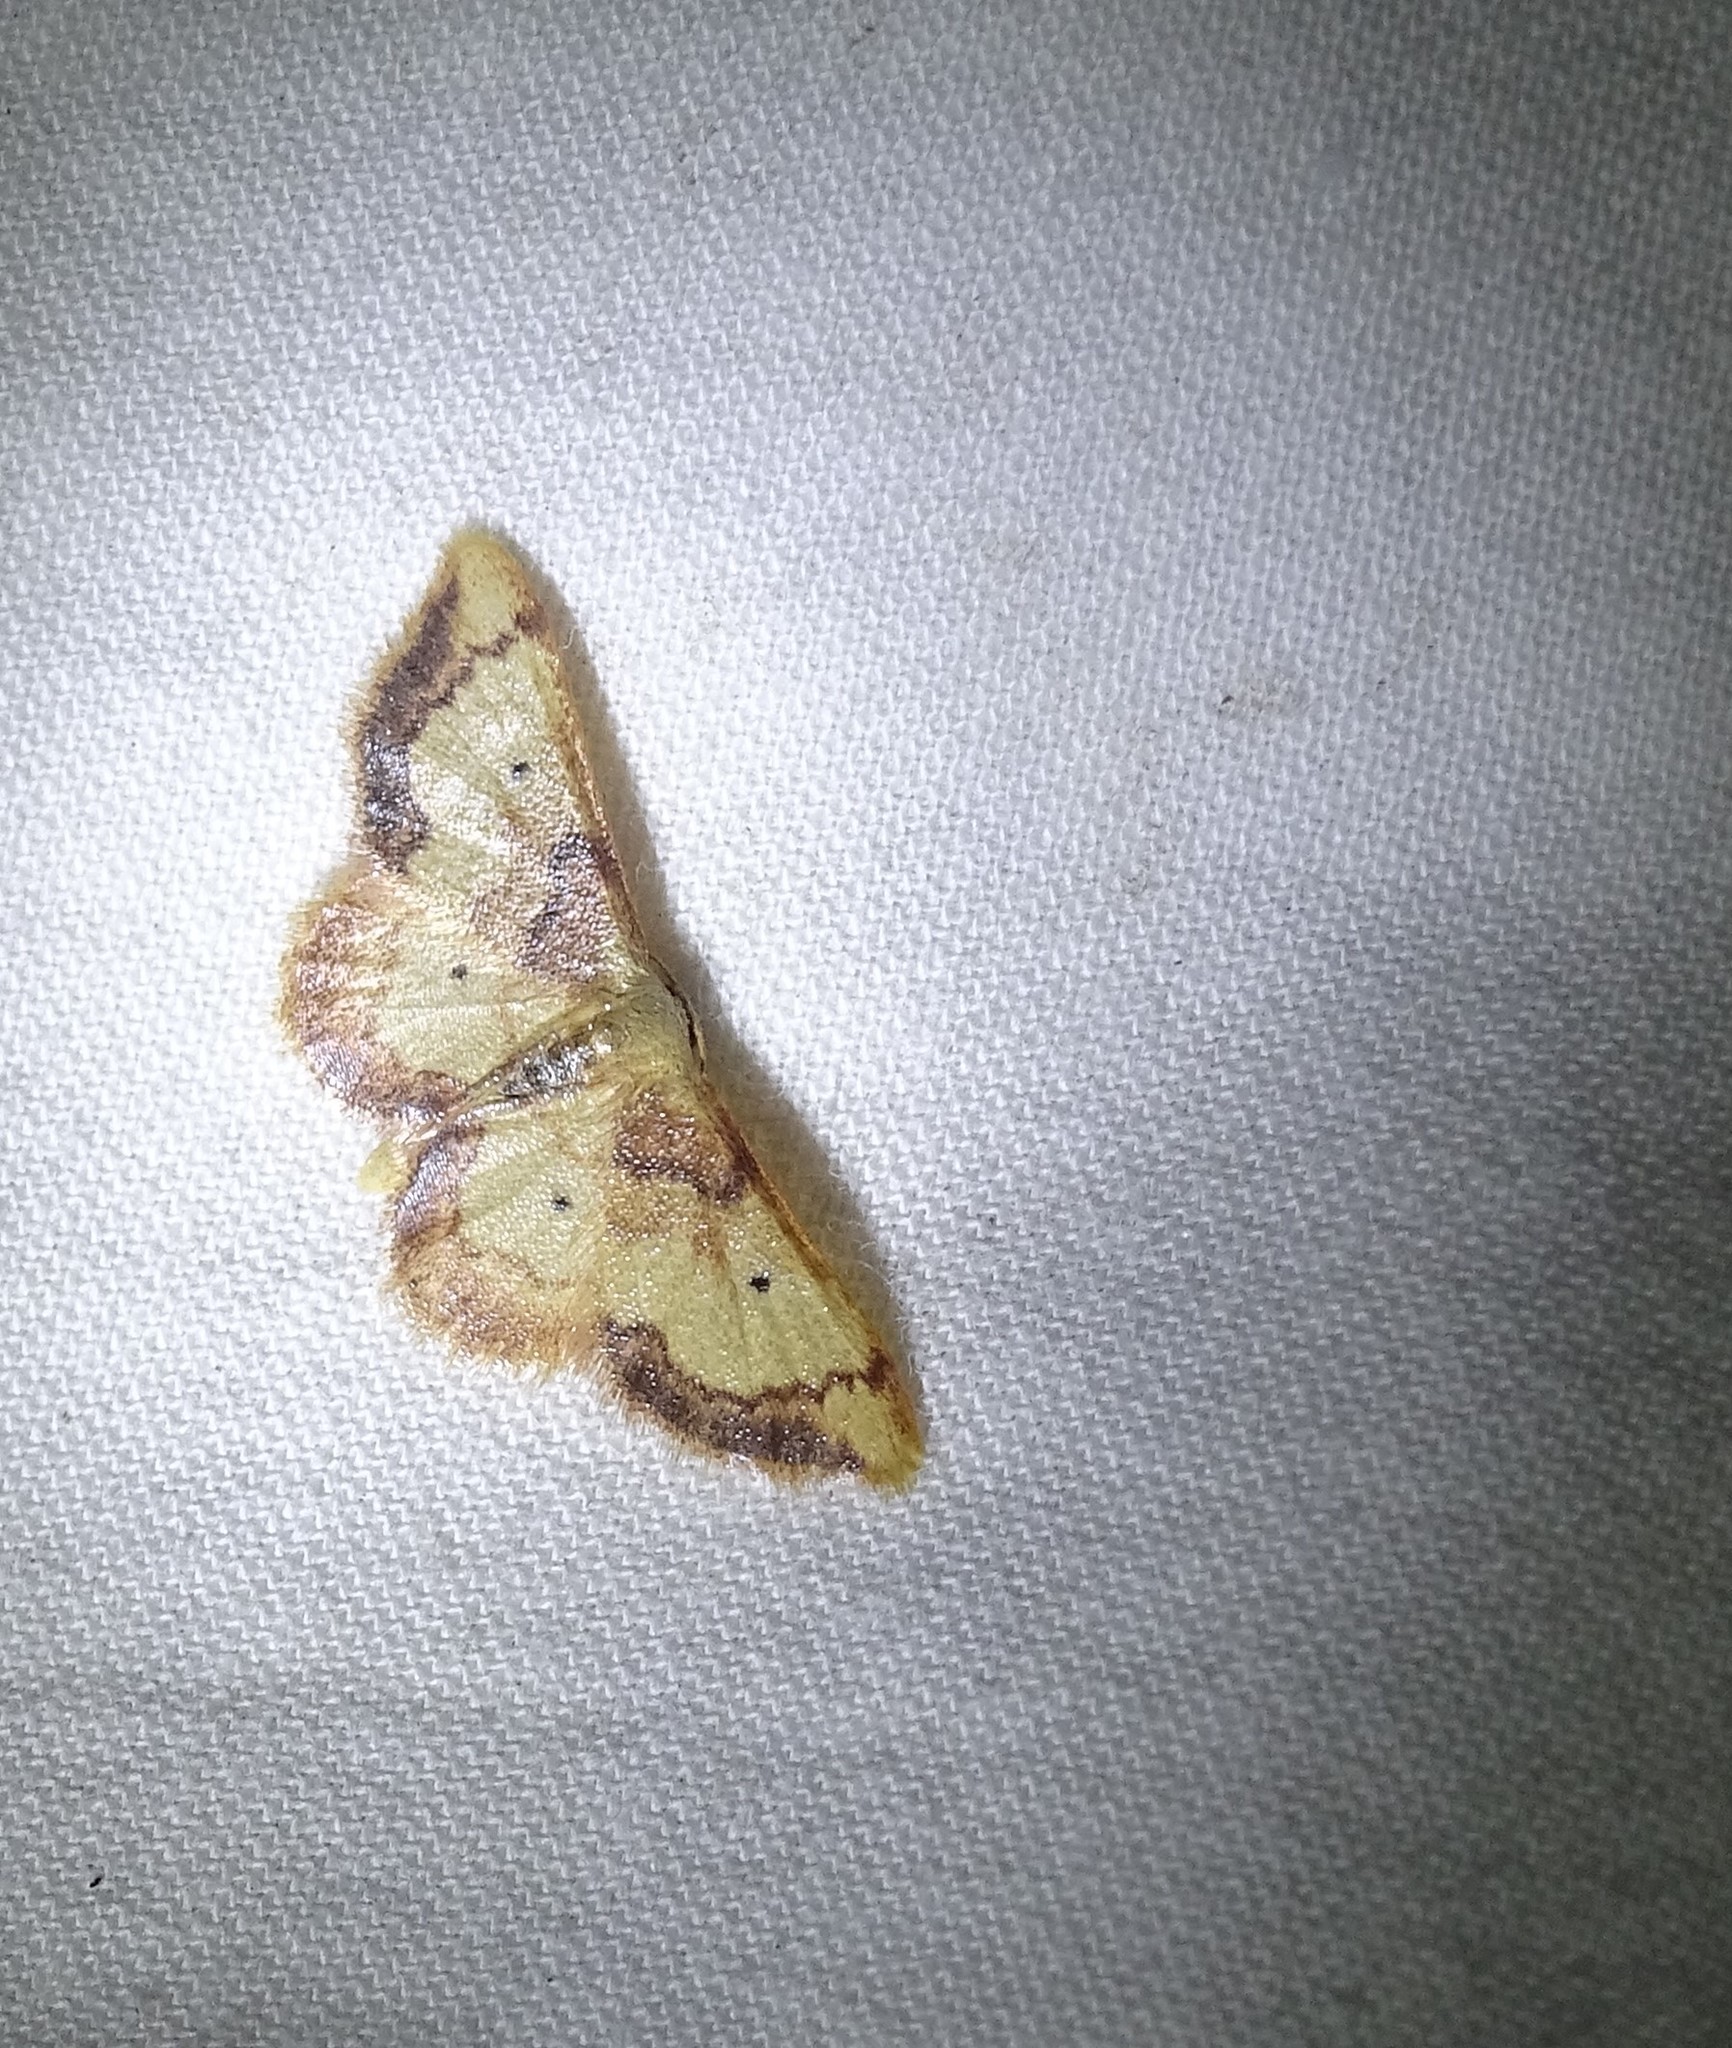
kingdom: Animalia
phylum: Arthropoda
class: Insecta
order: Lepidoptera
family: Geometridae
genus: Idaea
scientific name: Idaea demissaria
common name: Red-bordered wave
